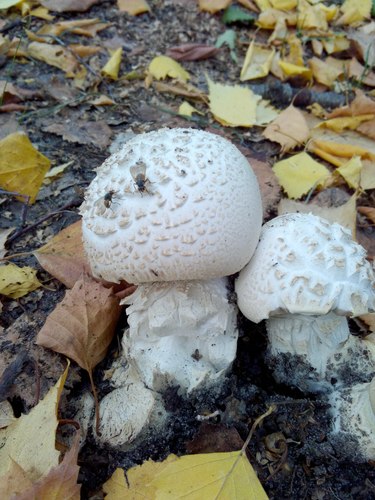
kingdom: Fungi
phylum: Basidiomycota
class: Agaricomycetes
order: Agaricales
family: Agaricaceae
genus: Agaricus
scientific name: Agaricus
